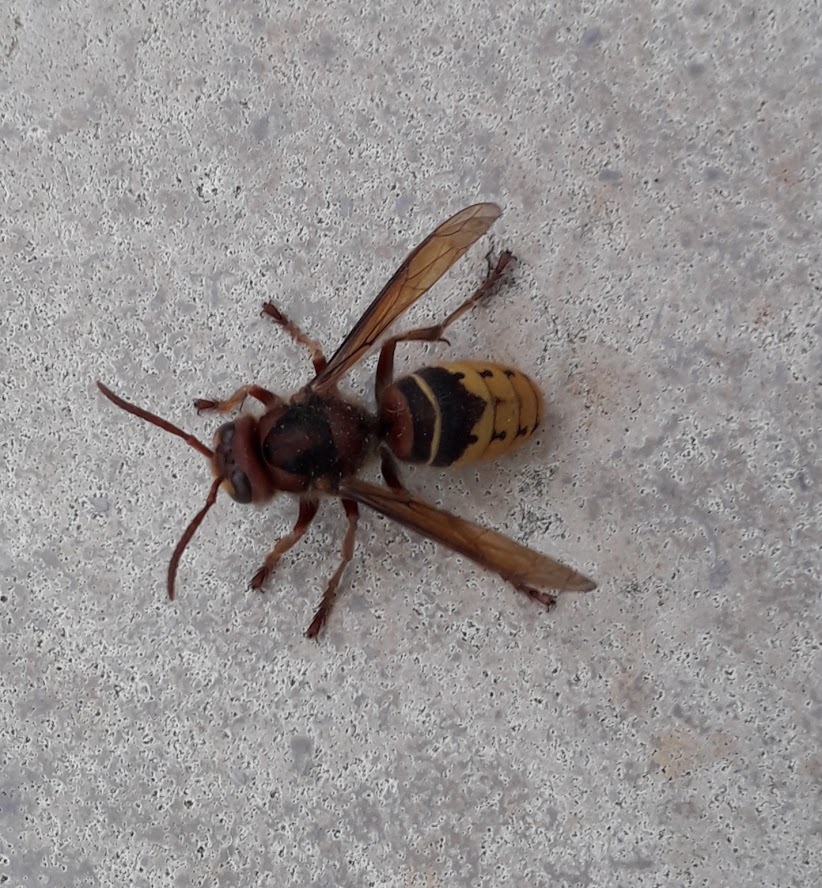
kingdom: Animalia
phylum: Arthropoda
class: Insecta
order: Hymenoptera
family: Vespidae
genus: Vespa
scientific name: Vespa crabro
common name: Hornet
